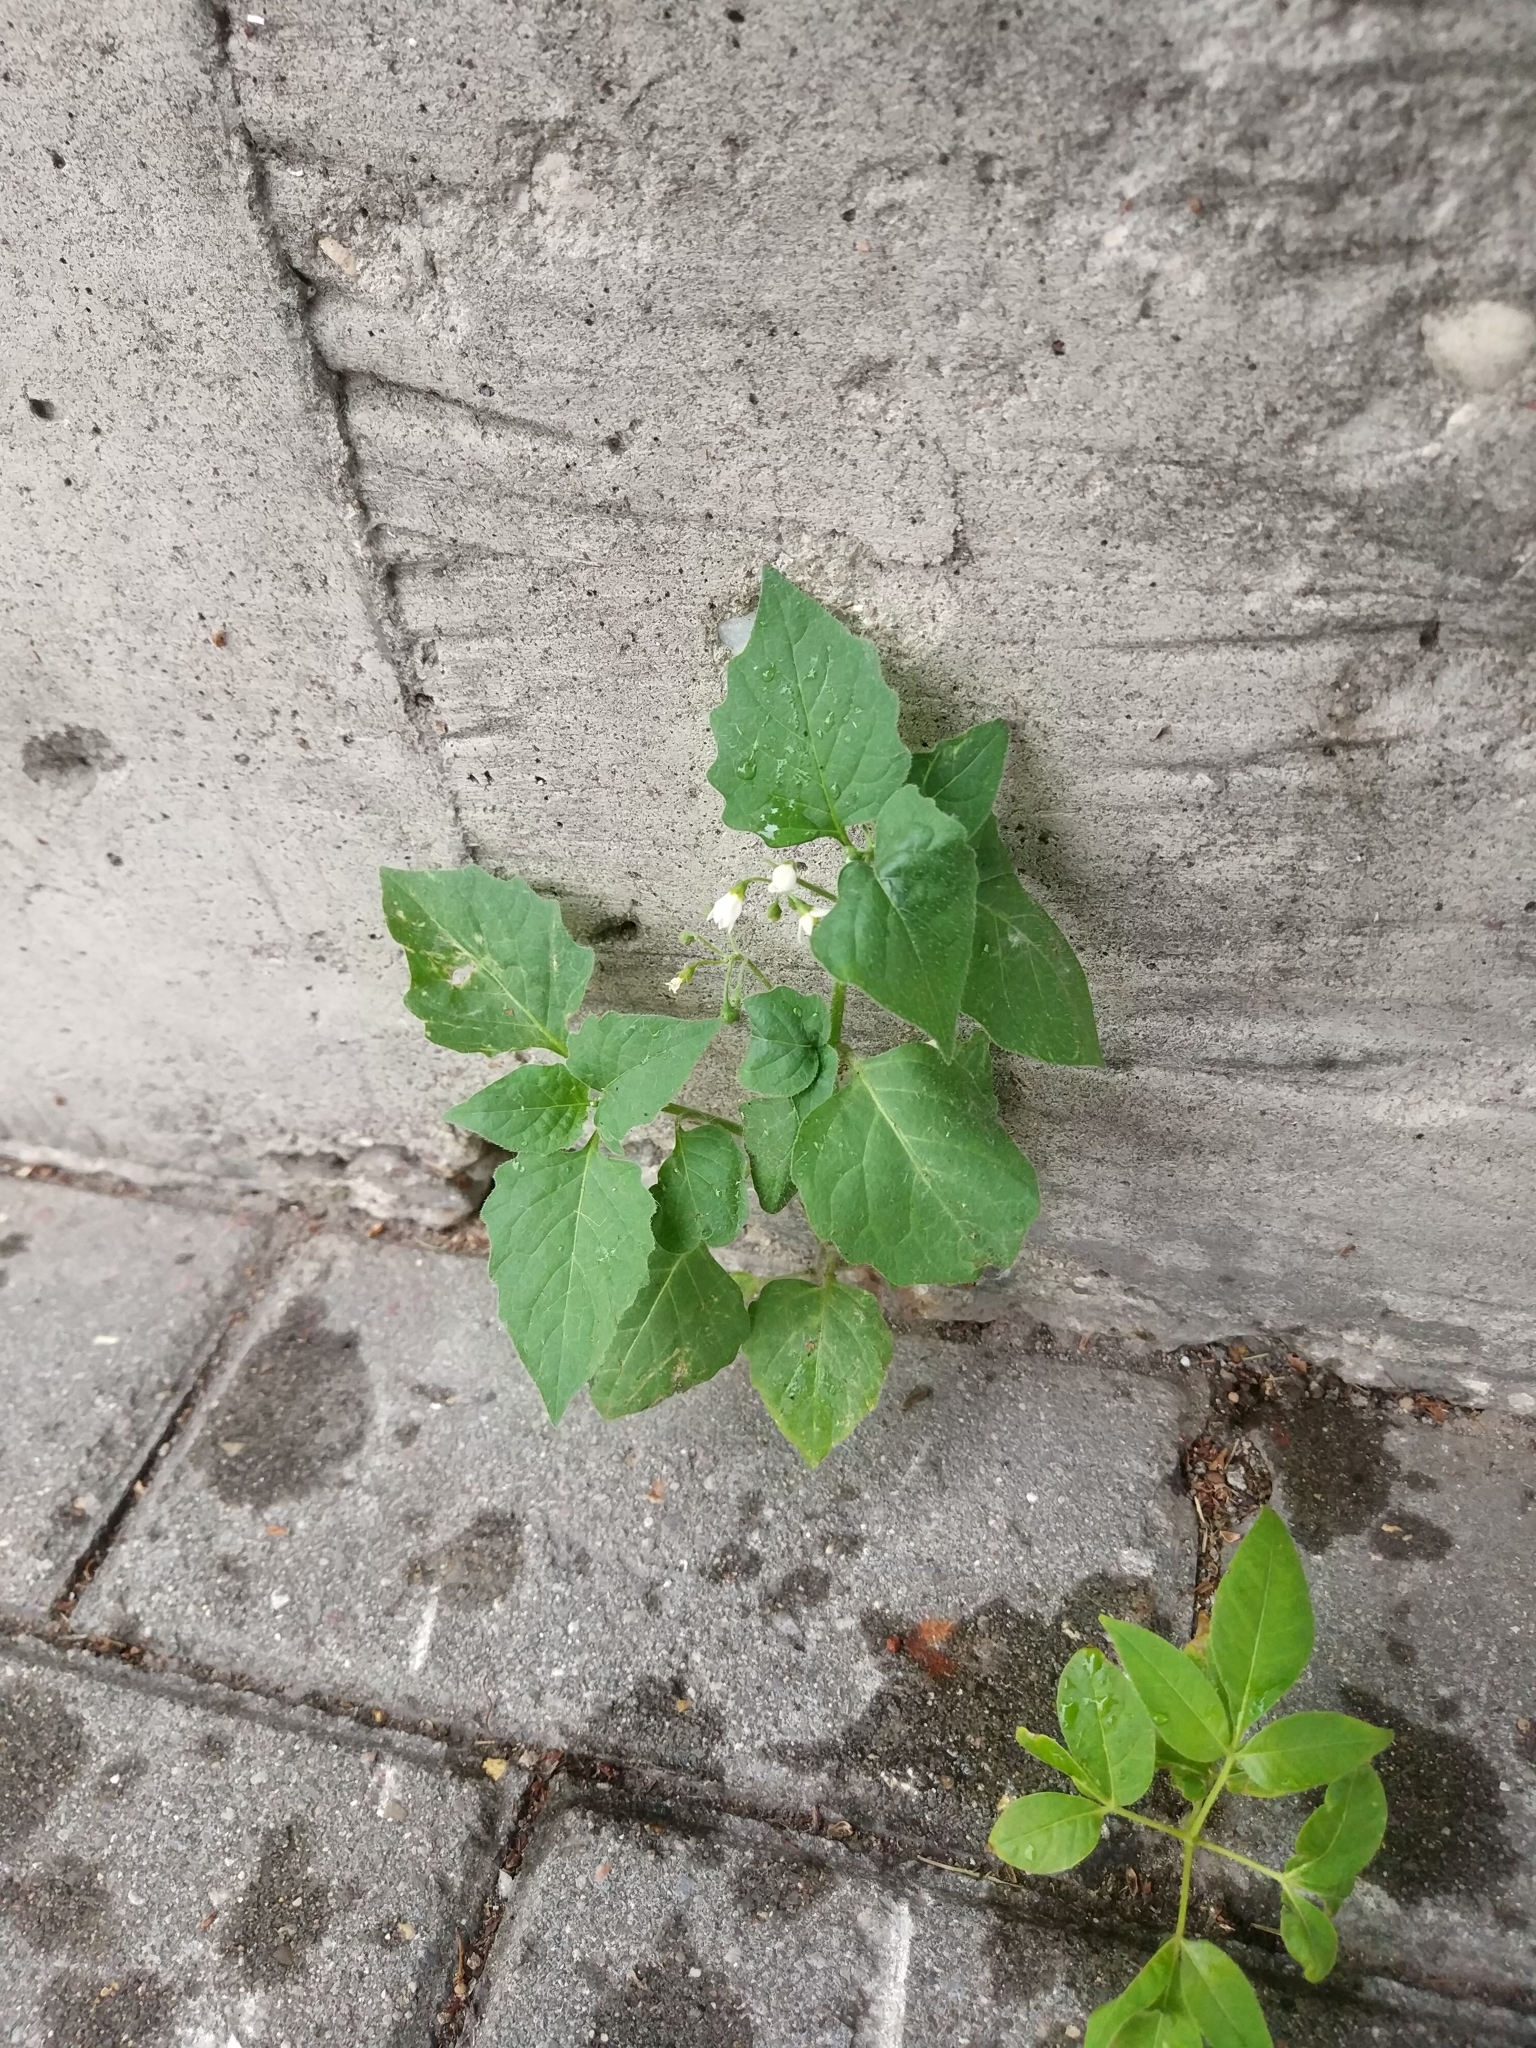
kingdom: Plantae
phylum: Tracheophyta
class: Magnoliopsida
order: Solanales
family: Solanaceae
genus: Solanum
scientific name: Solanum nigrum
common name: Black nightshade
